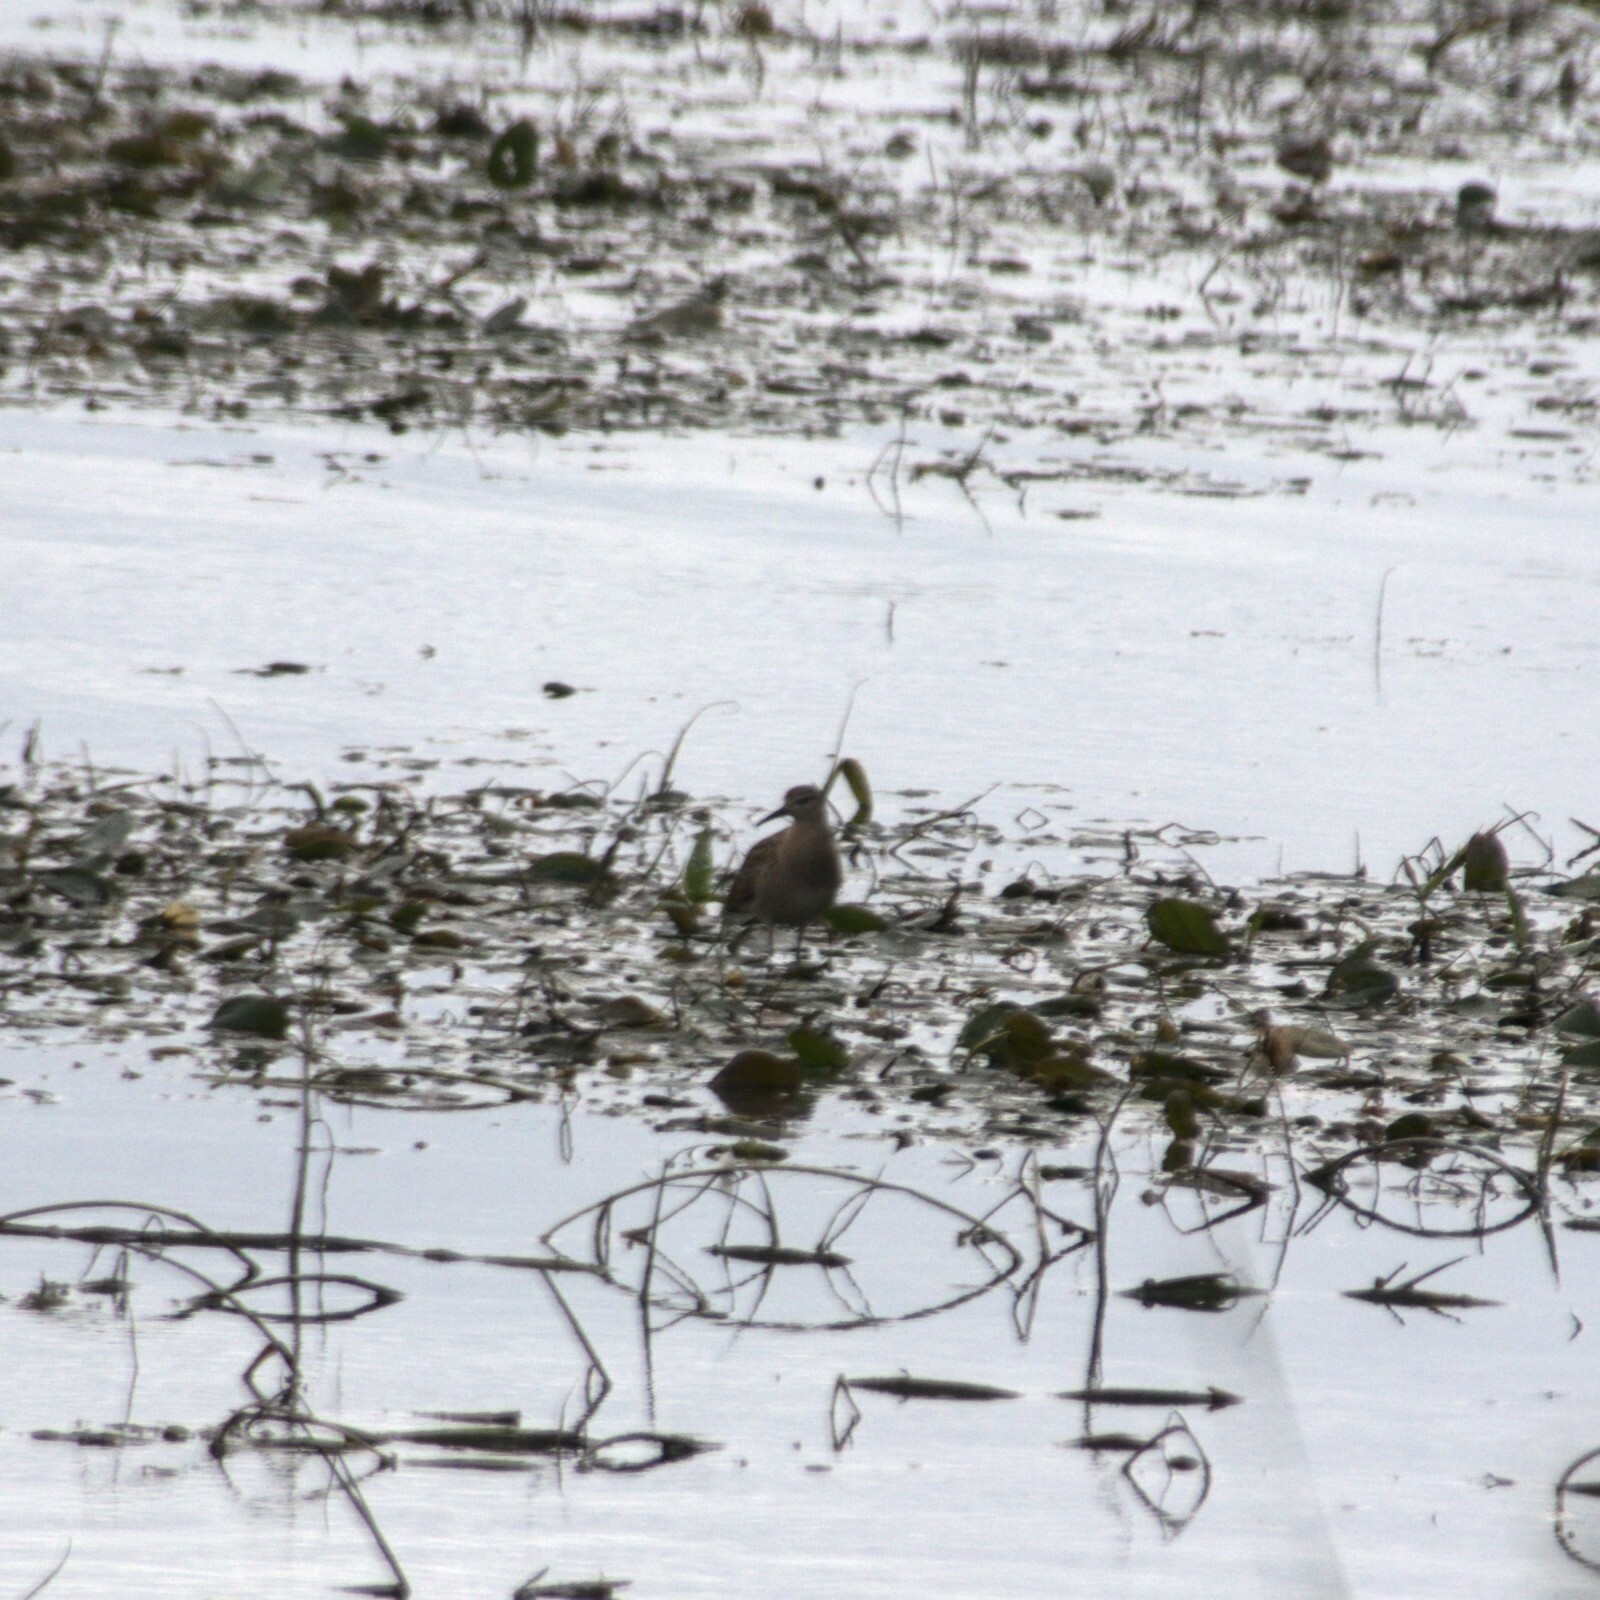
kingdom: Animalia
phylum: Chordata
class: Aves
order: Charadriiformes
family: Scolopacidae
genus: Calidris
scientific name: Calidris pugnax
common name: Ruff
